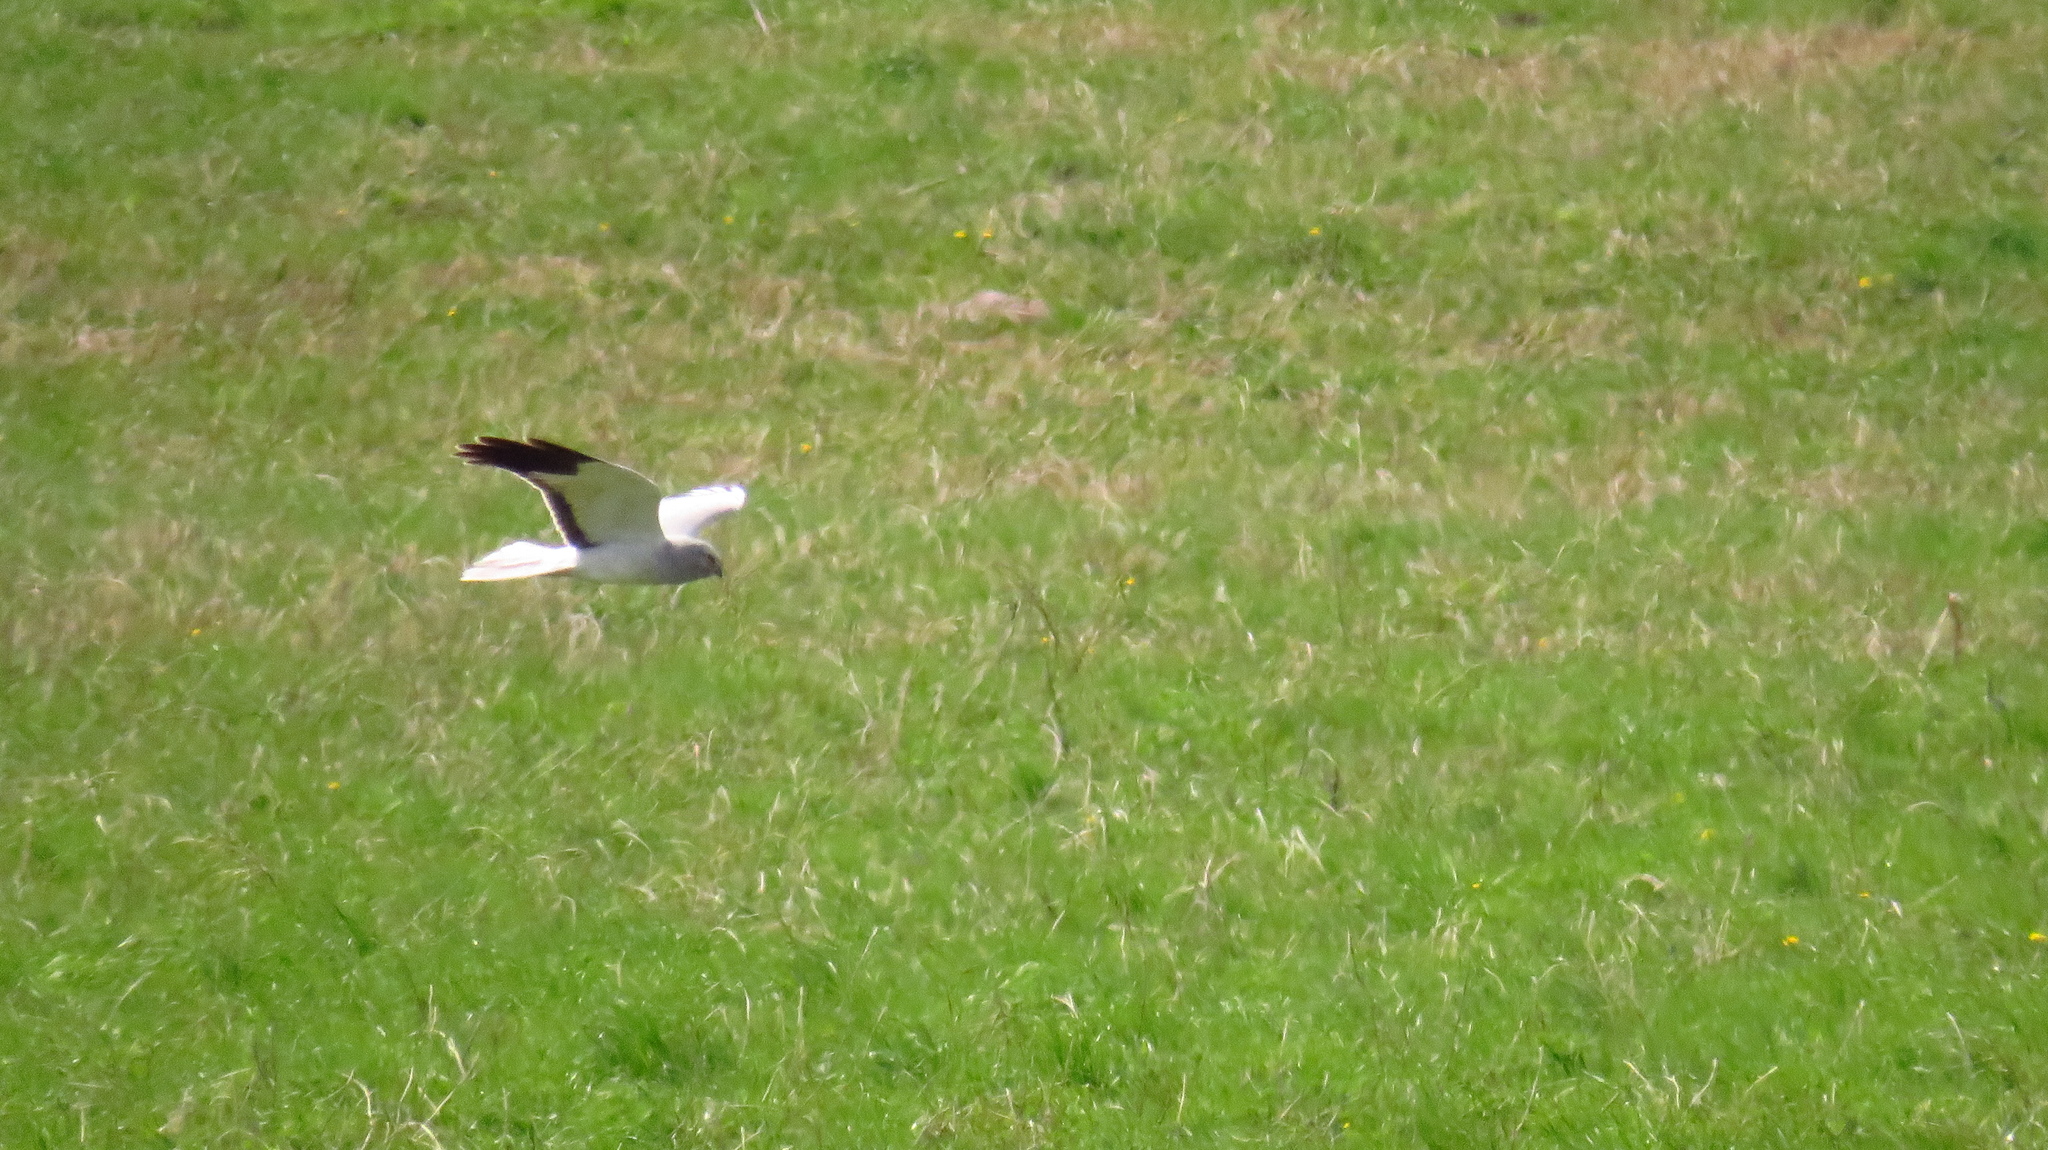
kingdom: Animalia
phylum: Chordata
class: Aves
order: Accipitriformes
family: Accipitridae
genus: Circus
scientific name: Circus cyaneus
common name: Hen harrier
